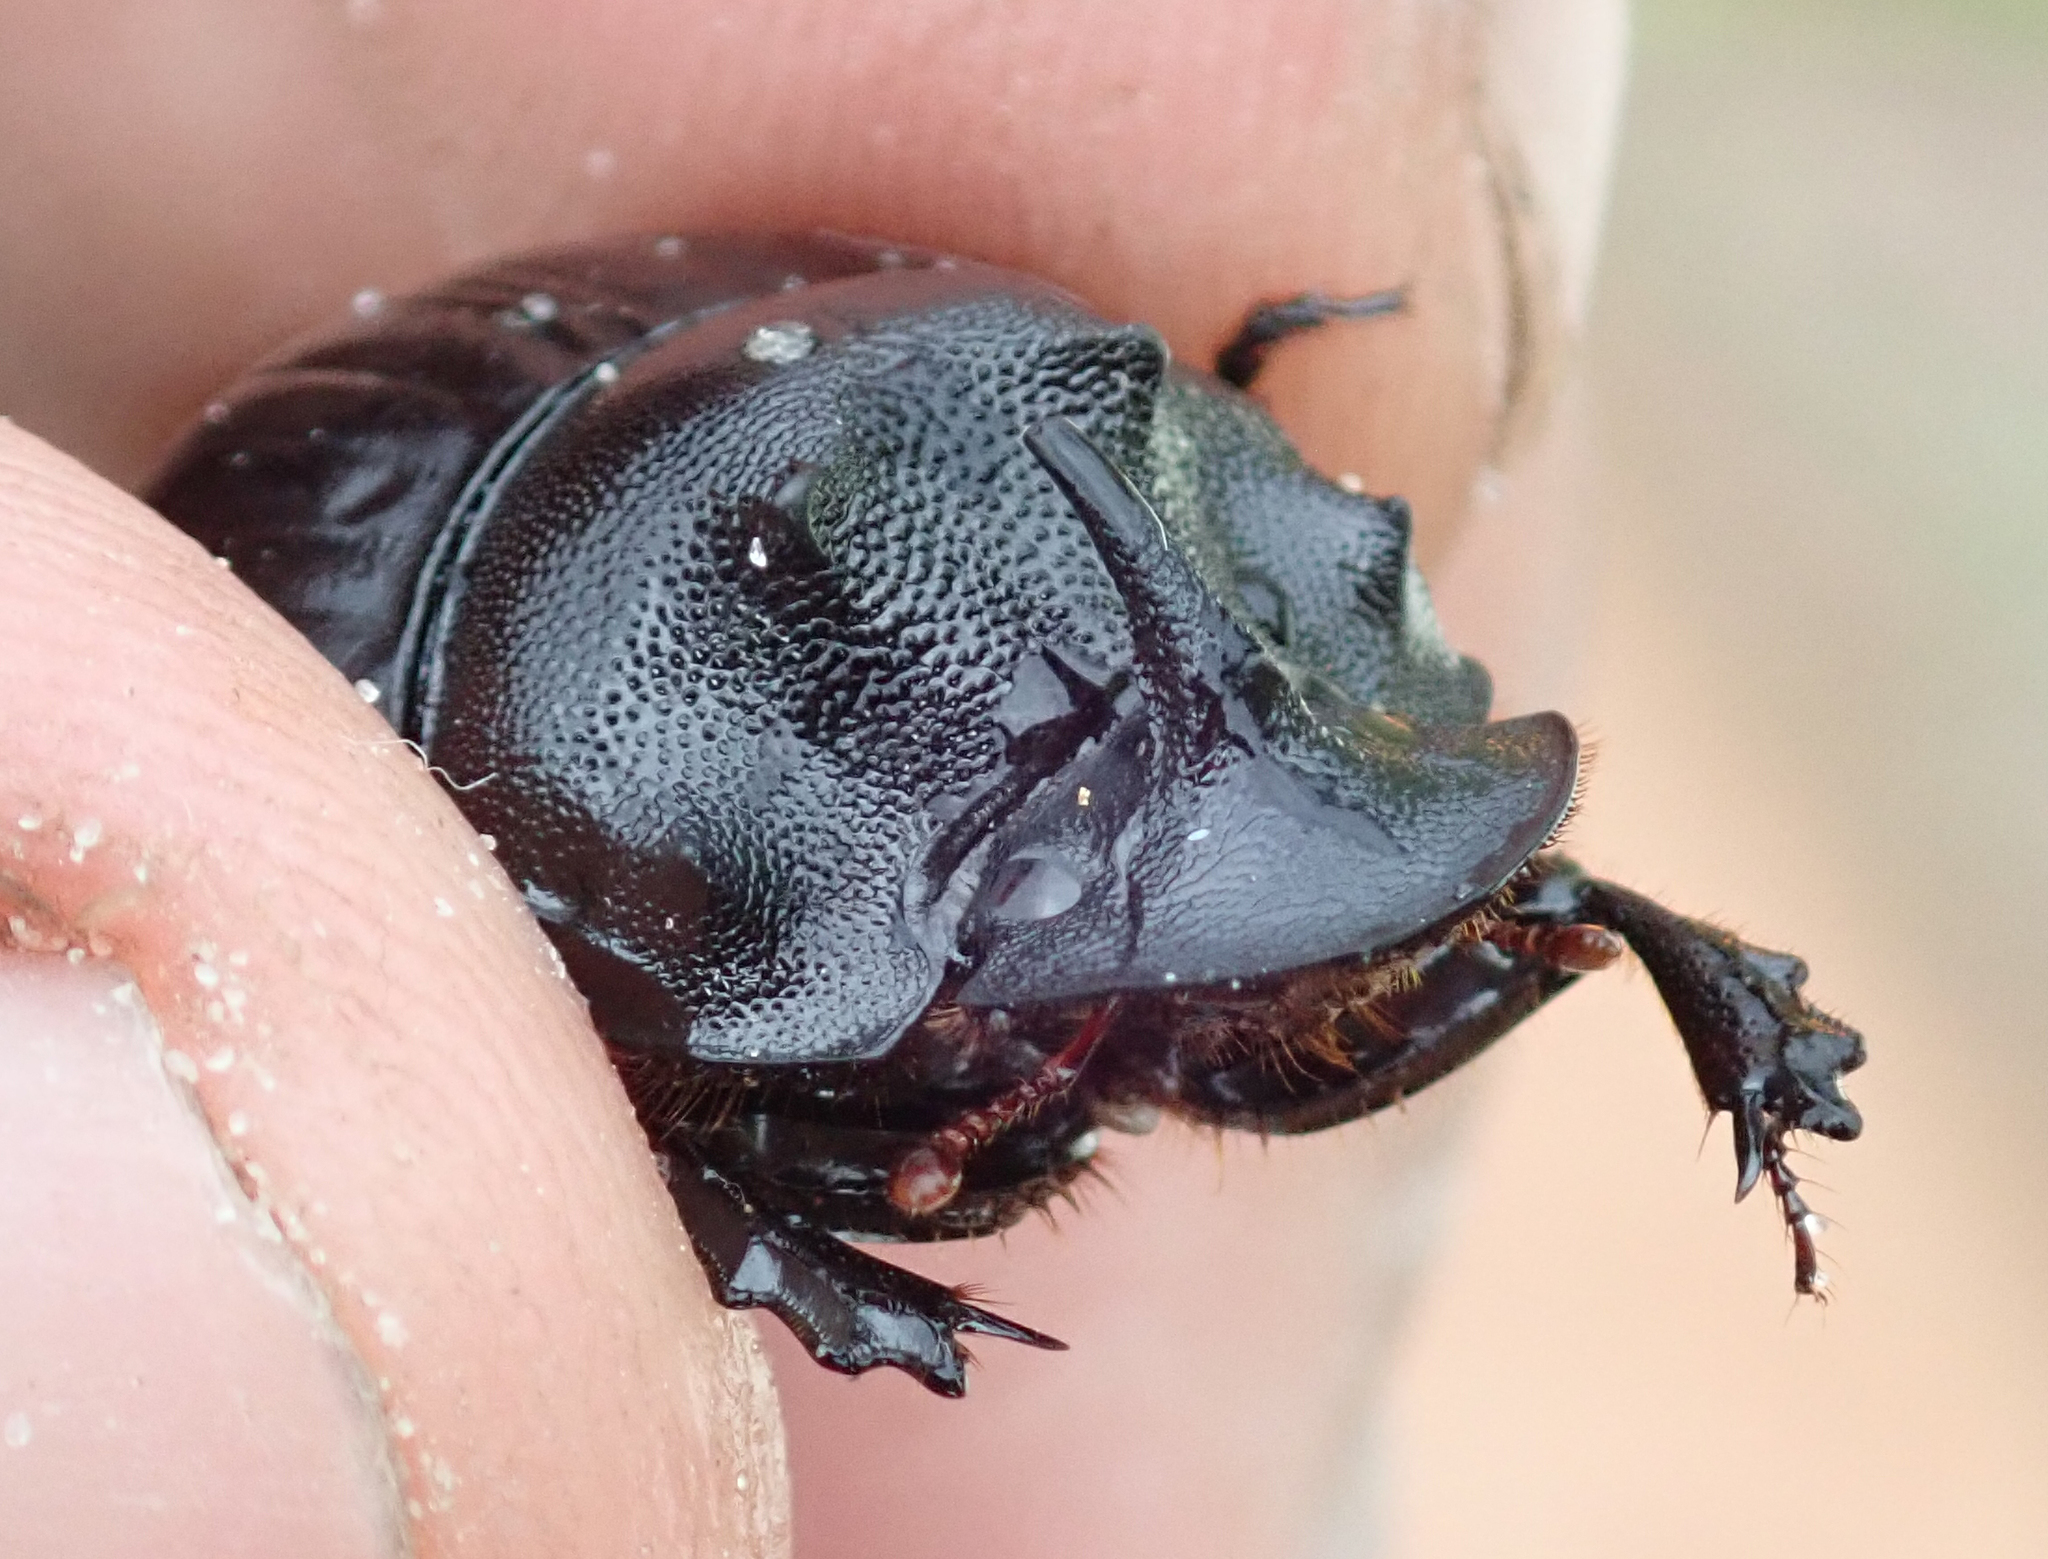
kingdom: Animalia
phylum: Arthropoda
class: Insecta
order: Coleoptera
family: Scarabaeidae
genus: Copris
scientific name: Copris elphenor
